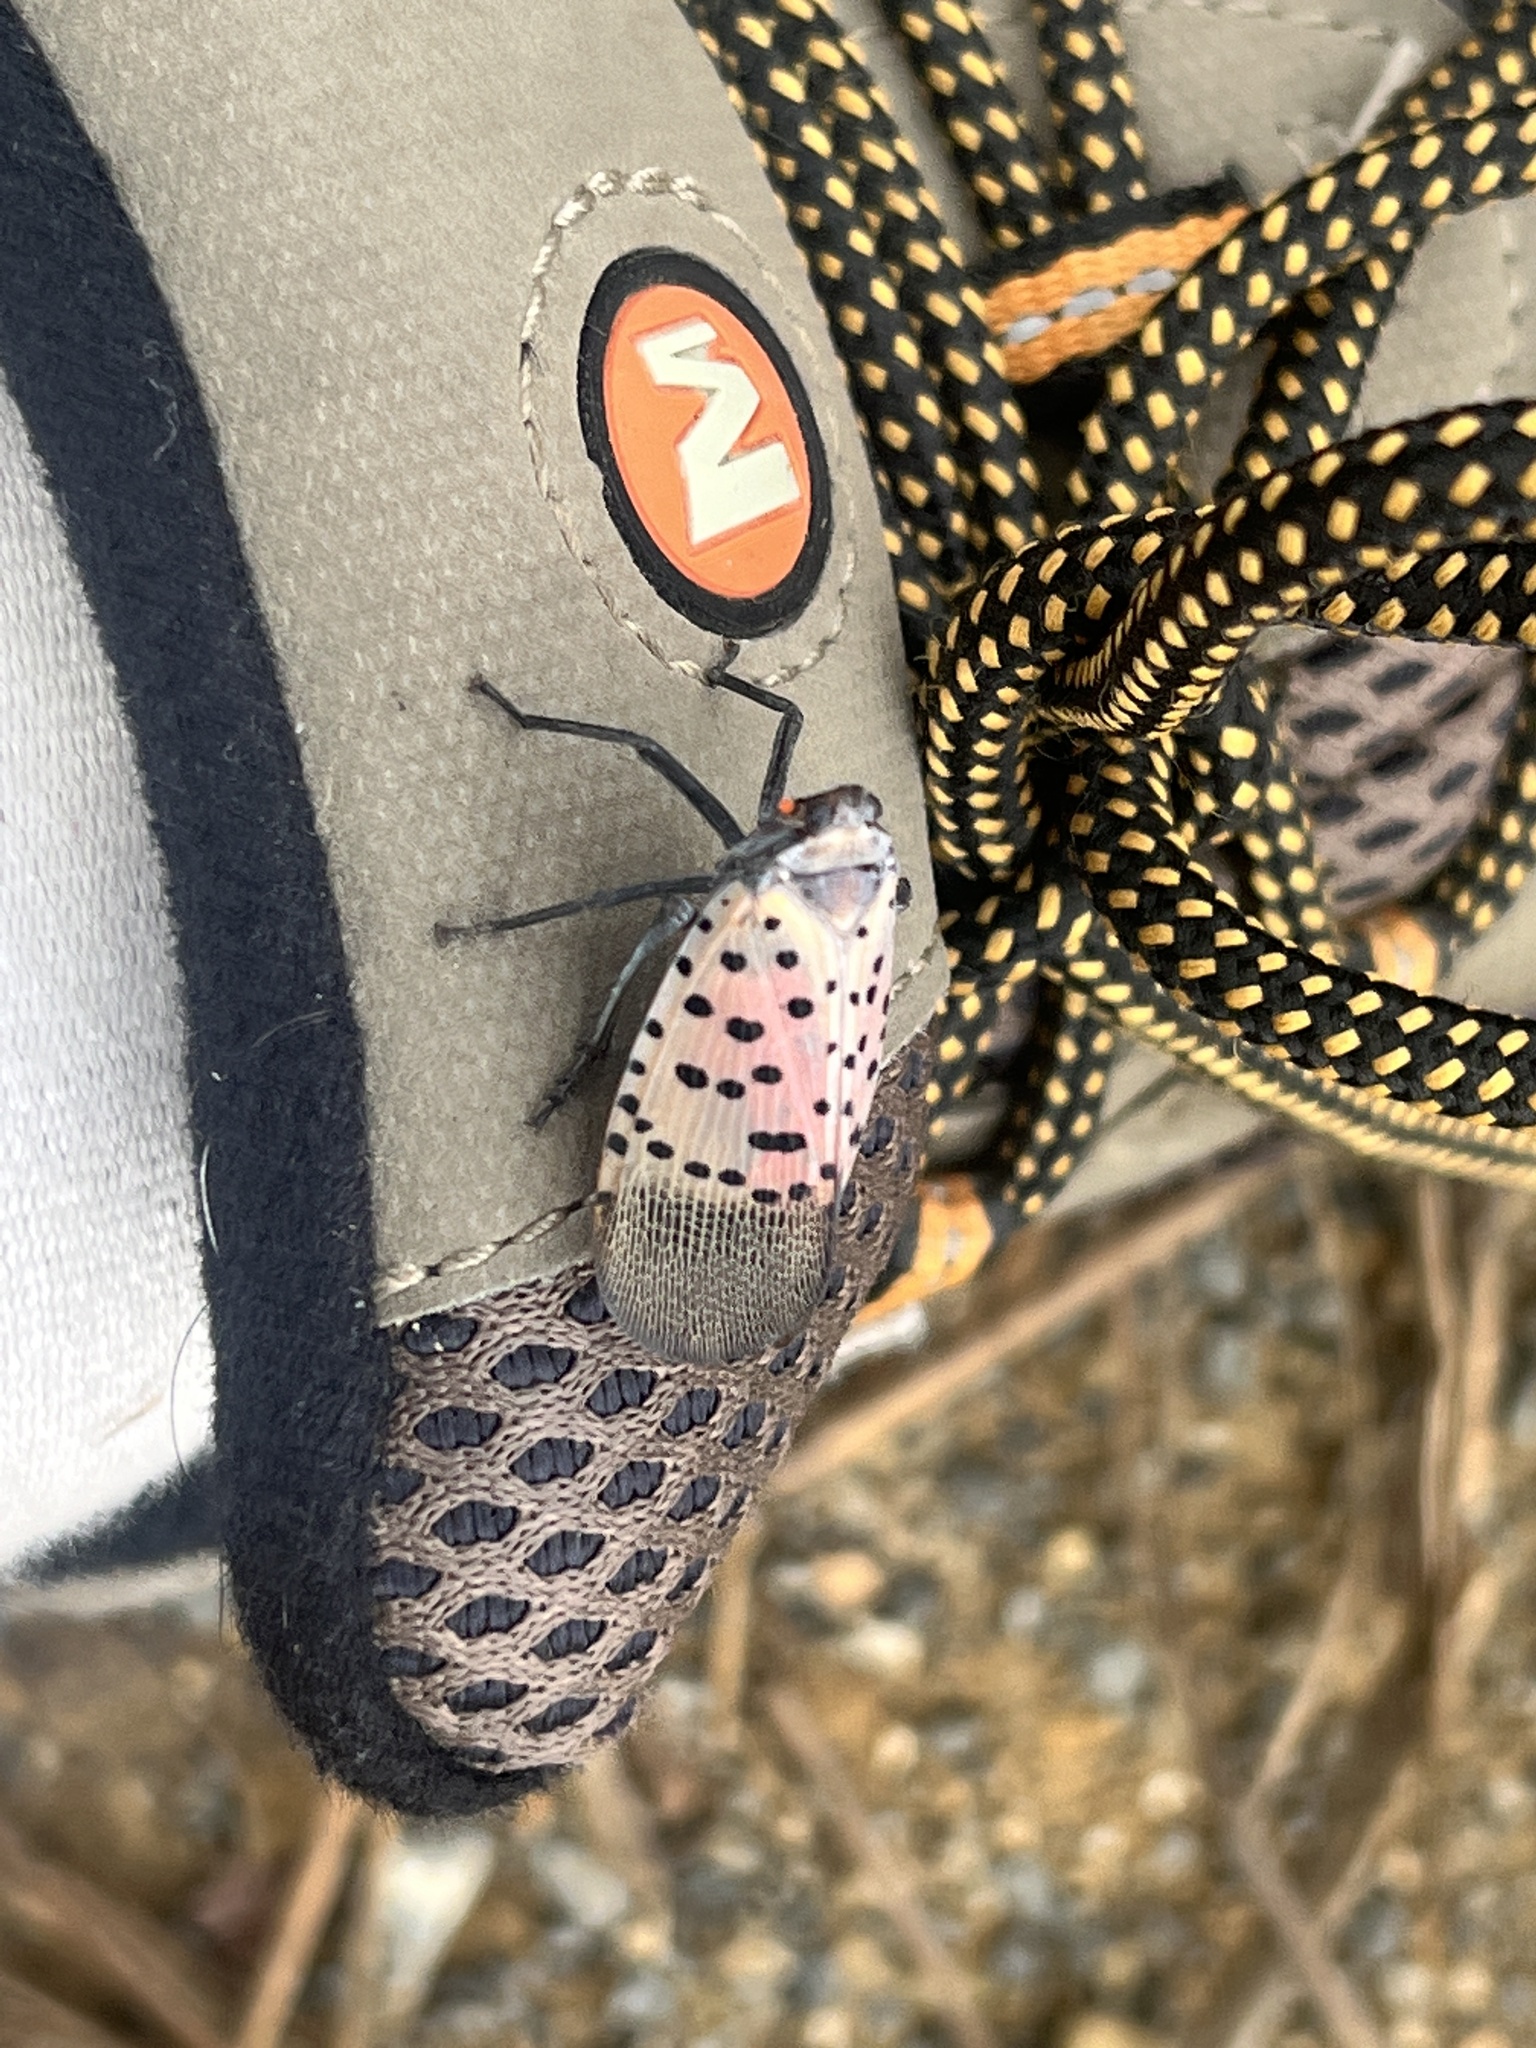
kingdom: Animalia
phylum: Arthropoda
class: Insecta
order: Hemiptera
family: Fulgoridae
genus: Lycorma
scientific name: Lycorma delicatula
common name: Spotted lanternfly
